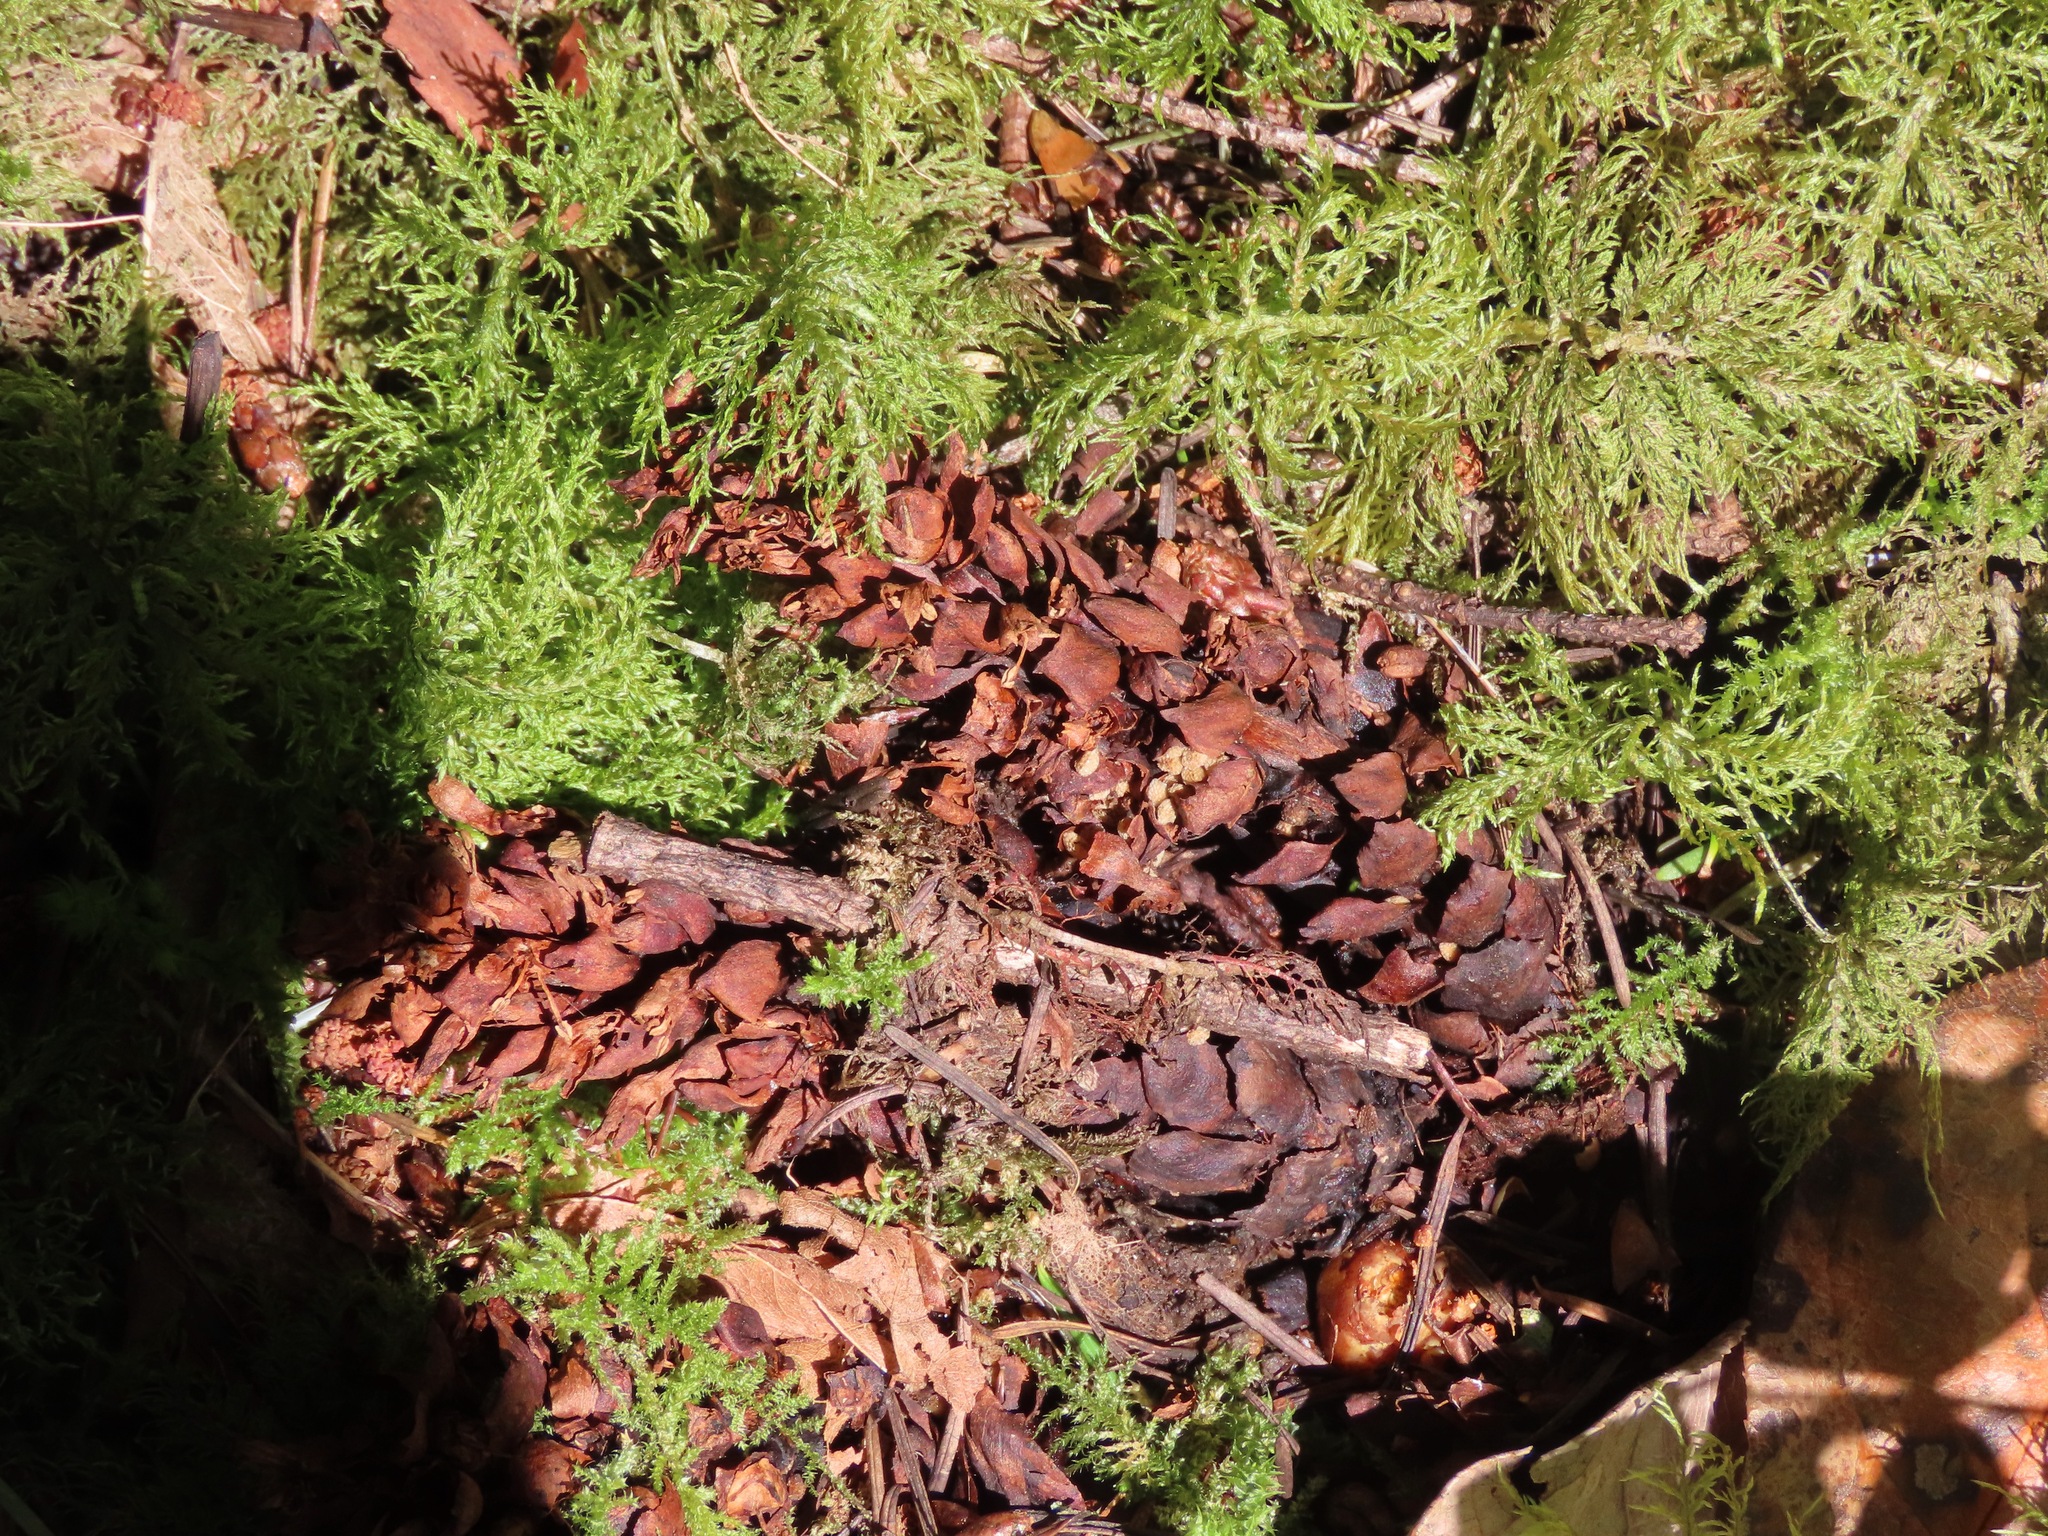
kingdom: Plantae
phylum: Tracheophyta
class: Magnoliopsida
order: Lamiales
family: Orobanchaceae
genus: Kopsiopsis
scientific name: Kopsiopsis hookeri
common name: Hooker's groundcone
